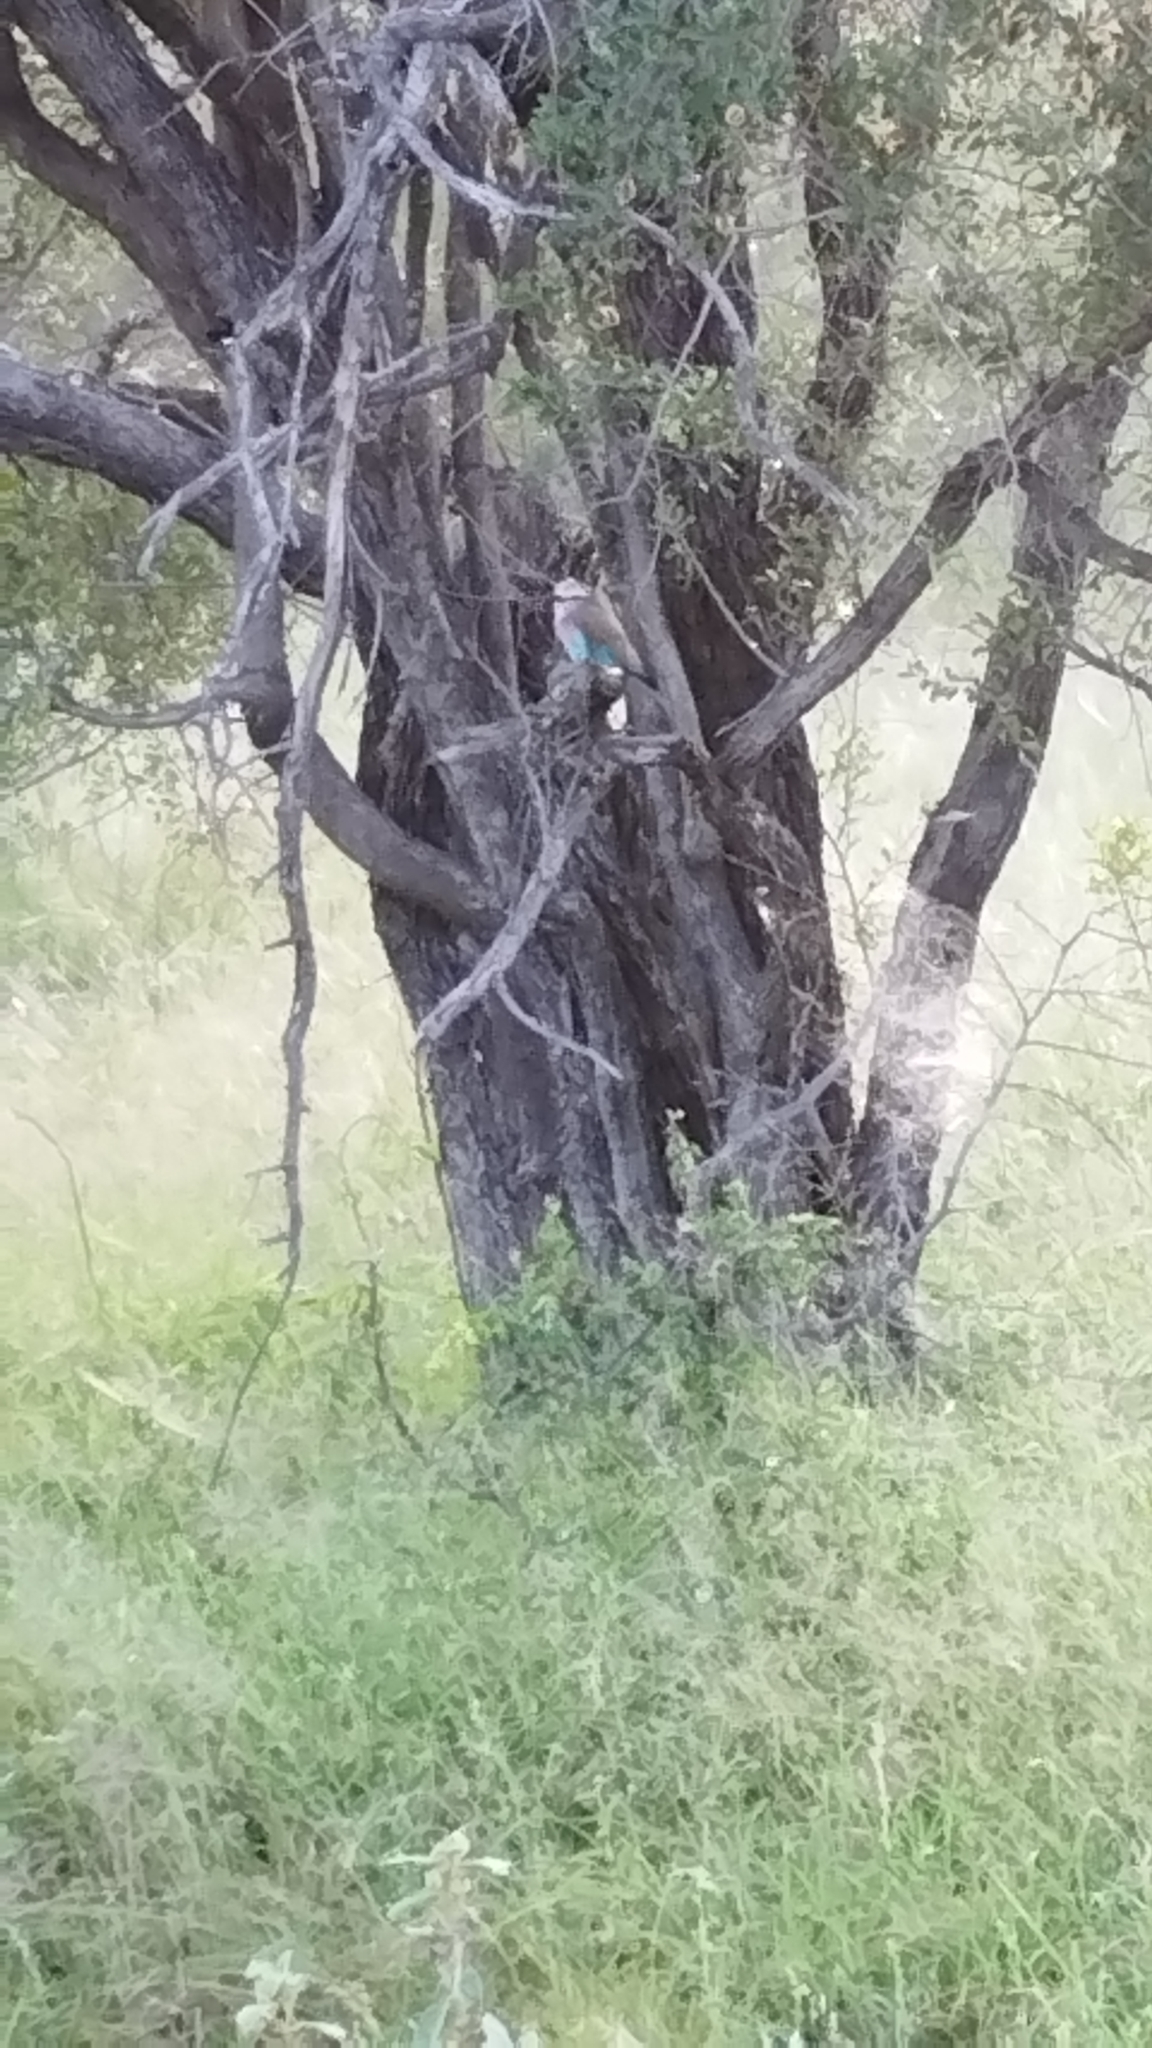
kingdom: Animalia
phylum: Chordata
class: Aves
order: Coraciiformes
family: Coraciidae
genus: Coracias
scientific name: Coracias caudatus
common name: Lilac-breasted roller
